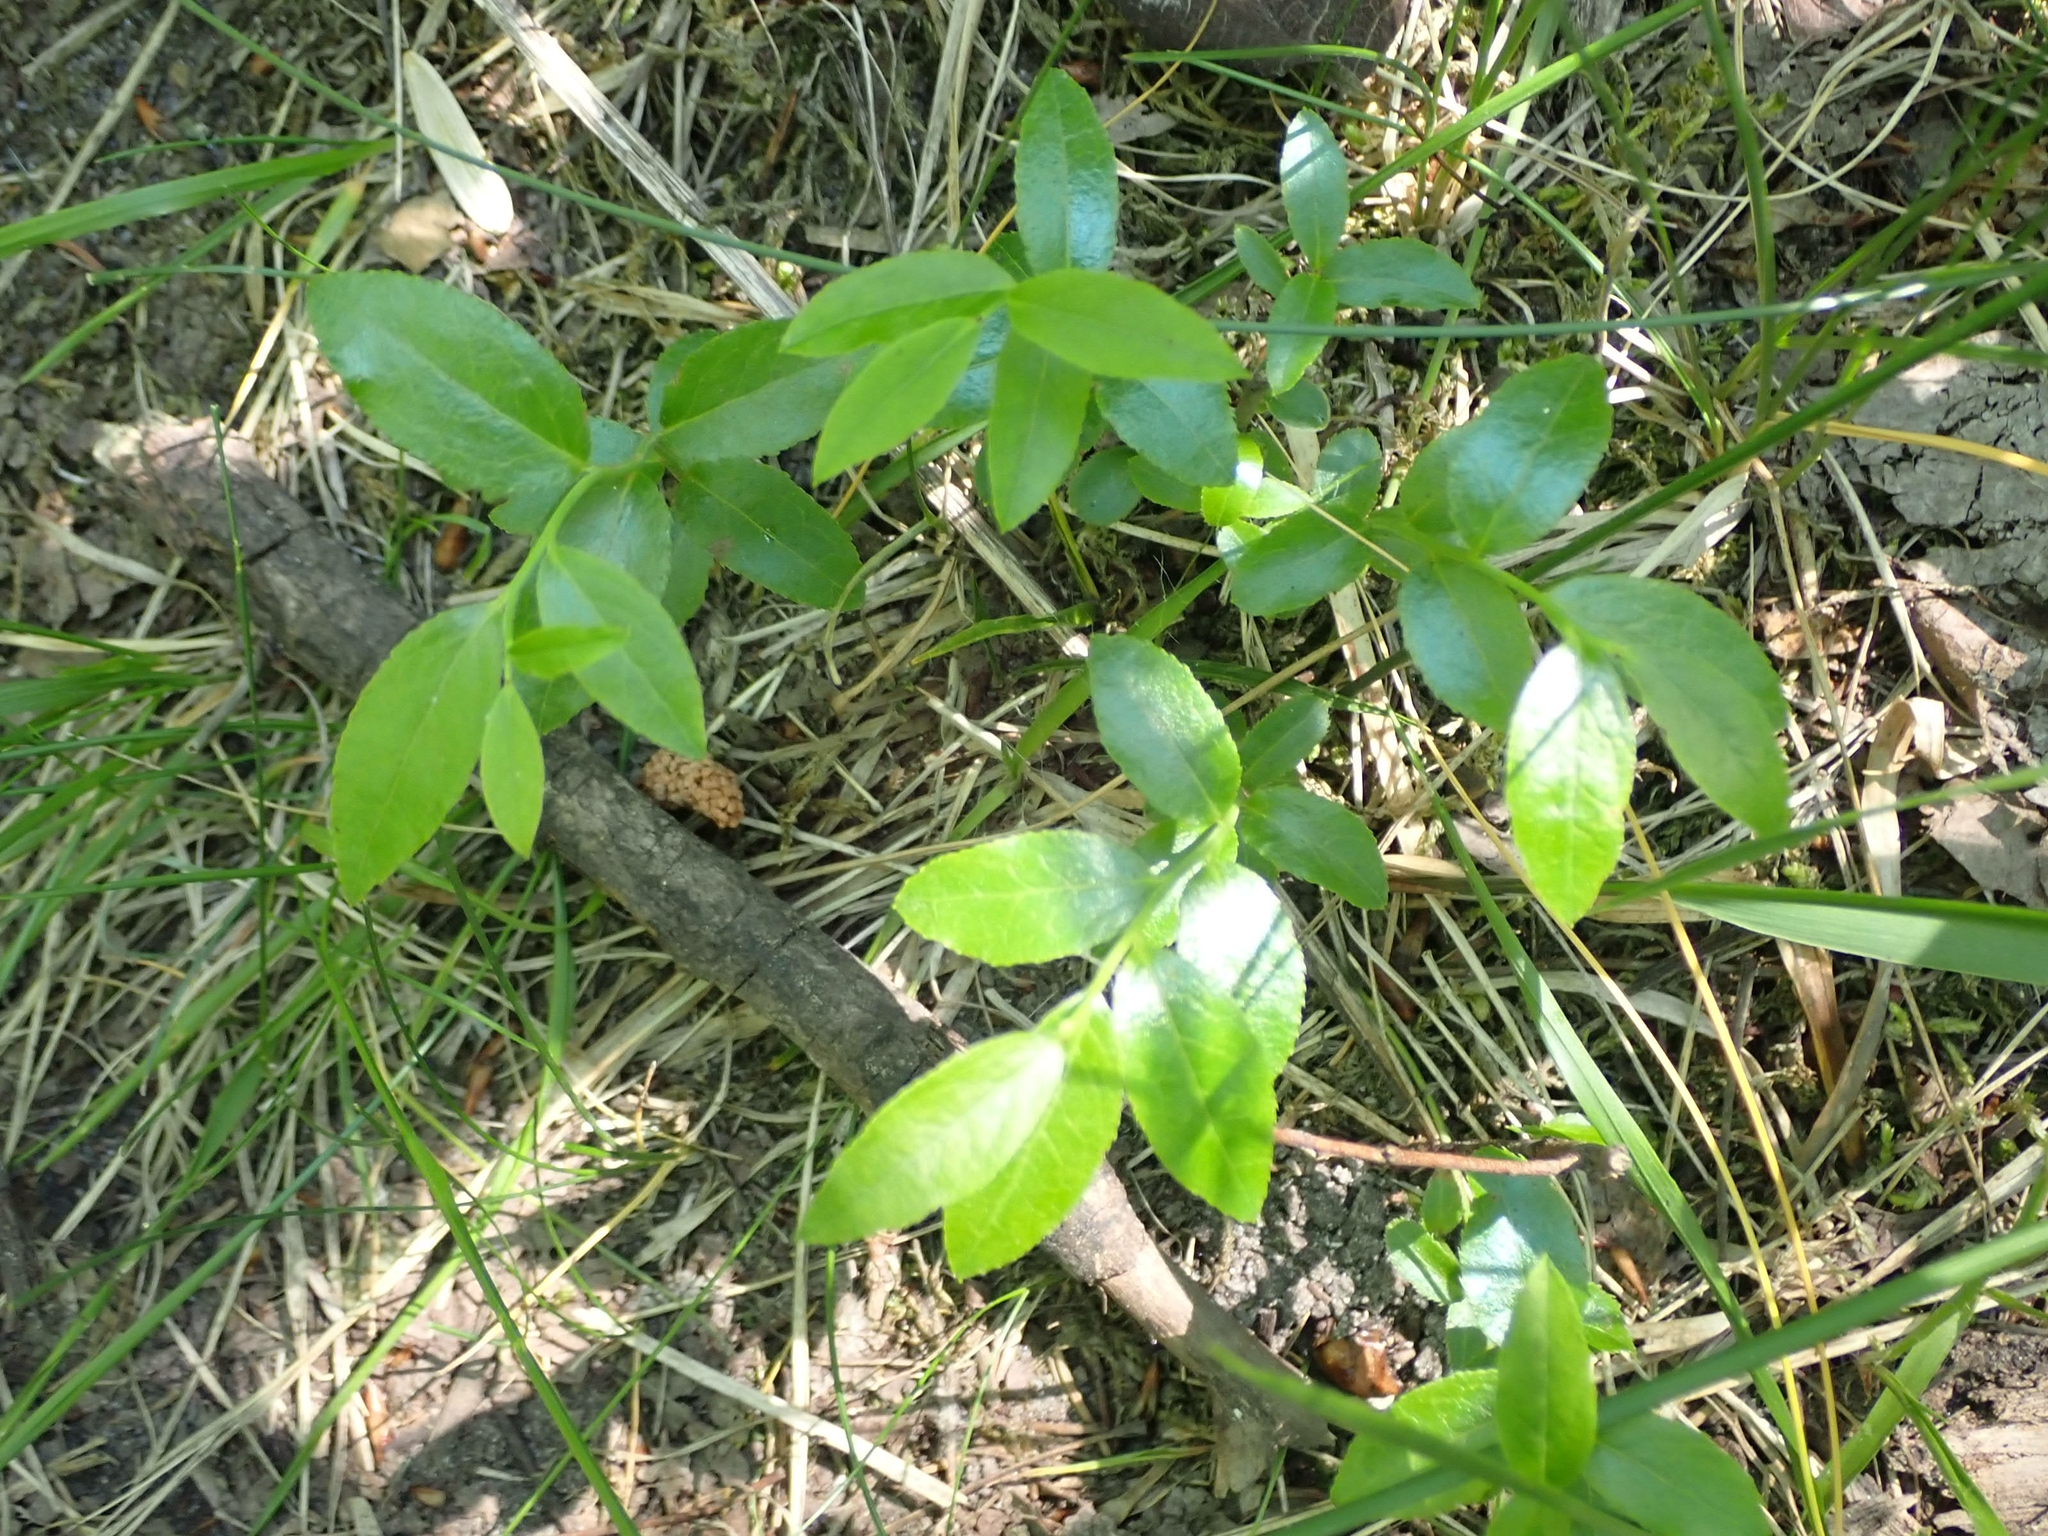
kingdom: Plantae
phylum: Tracheophyta
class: Magnoliopsida
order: Ericales
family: Ericaceae
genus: Vaccinium
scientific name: Vaccinium angustifolium
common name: Early lowbush blueberry
